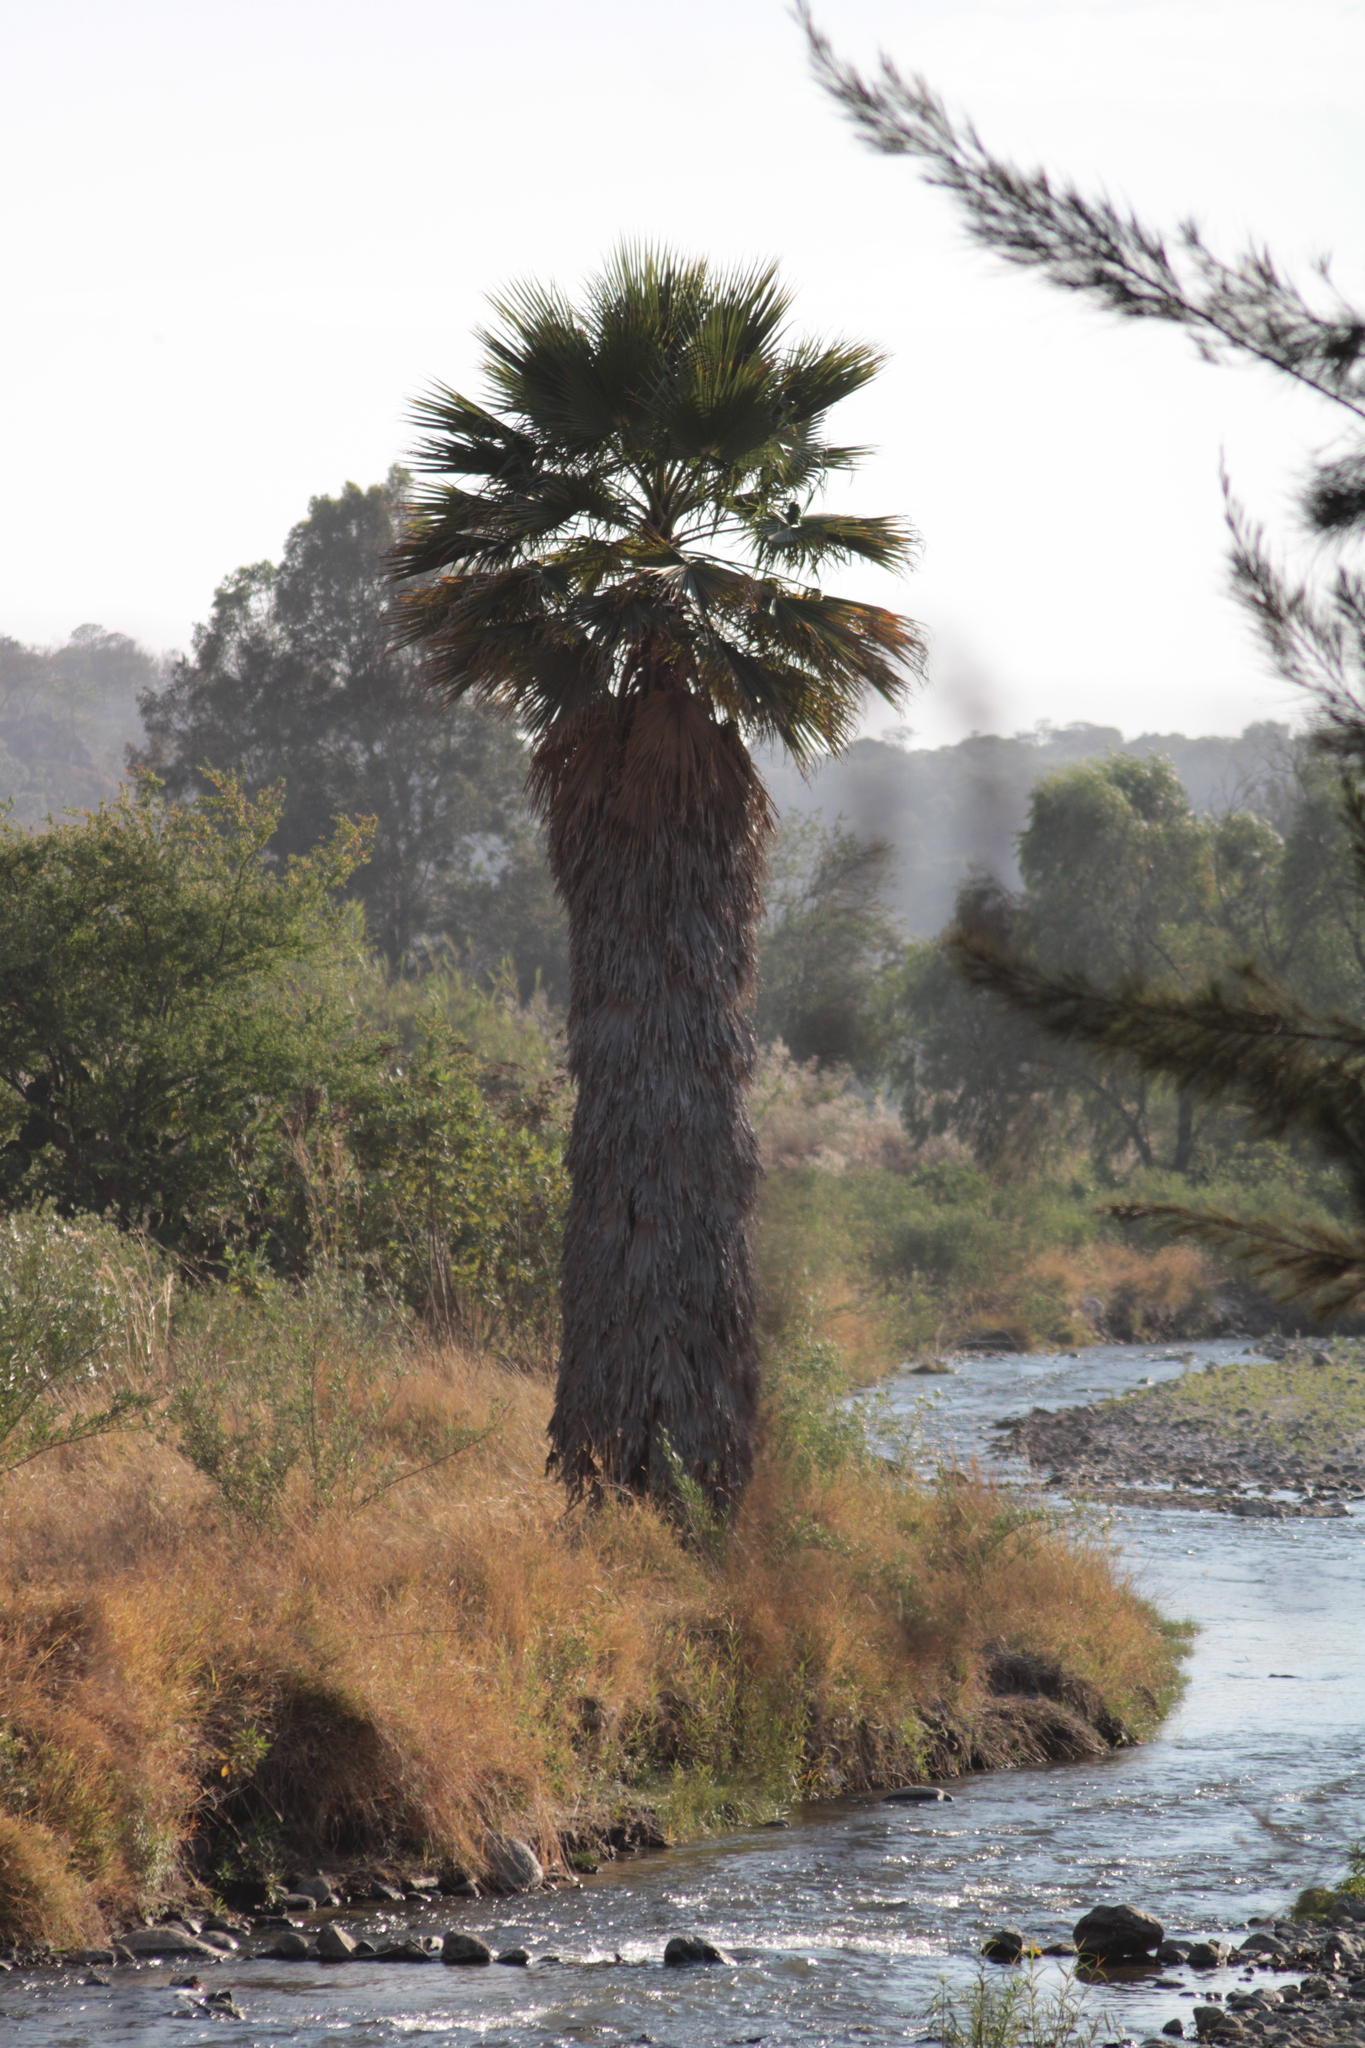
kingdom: Plantae
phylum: Tracheophyta
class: Liliopsida
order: Arecales
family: Arecaceae
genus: Washingtonia
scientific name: Washingtonia robusta
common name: Mexican fan palm
